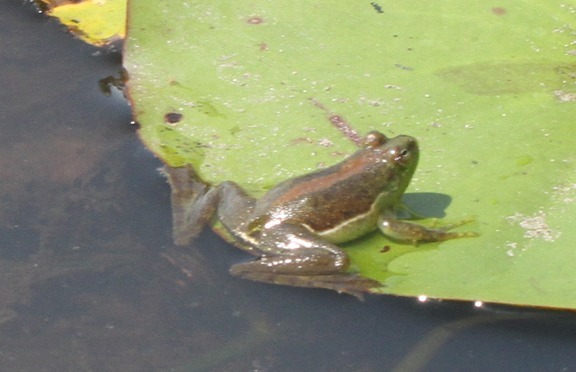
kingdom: Animalia
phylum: Chordata
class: Amphibia
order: Anura
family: Hylidae
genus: Lysapsus
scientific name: Lysapsus limellum
